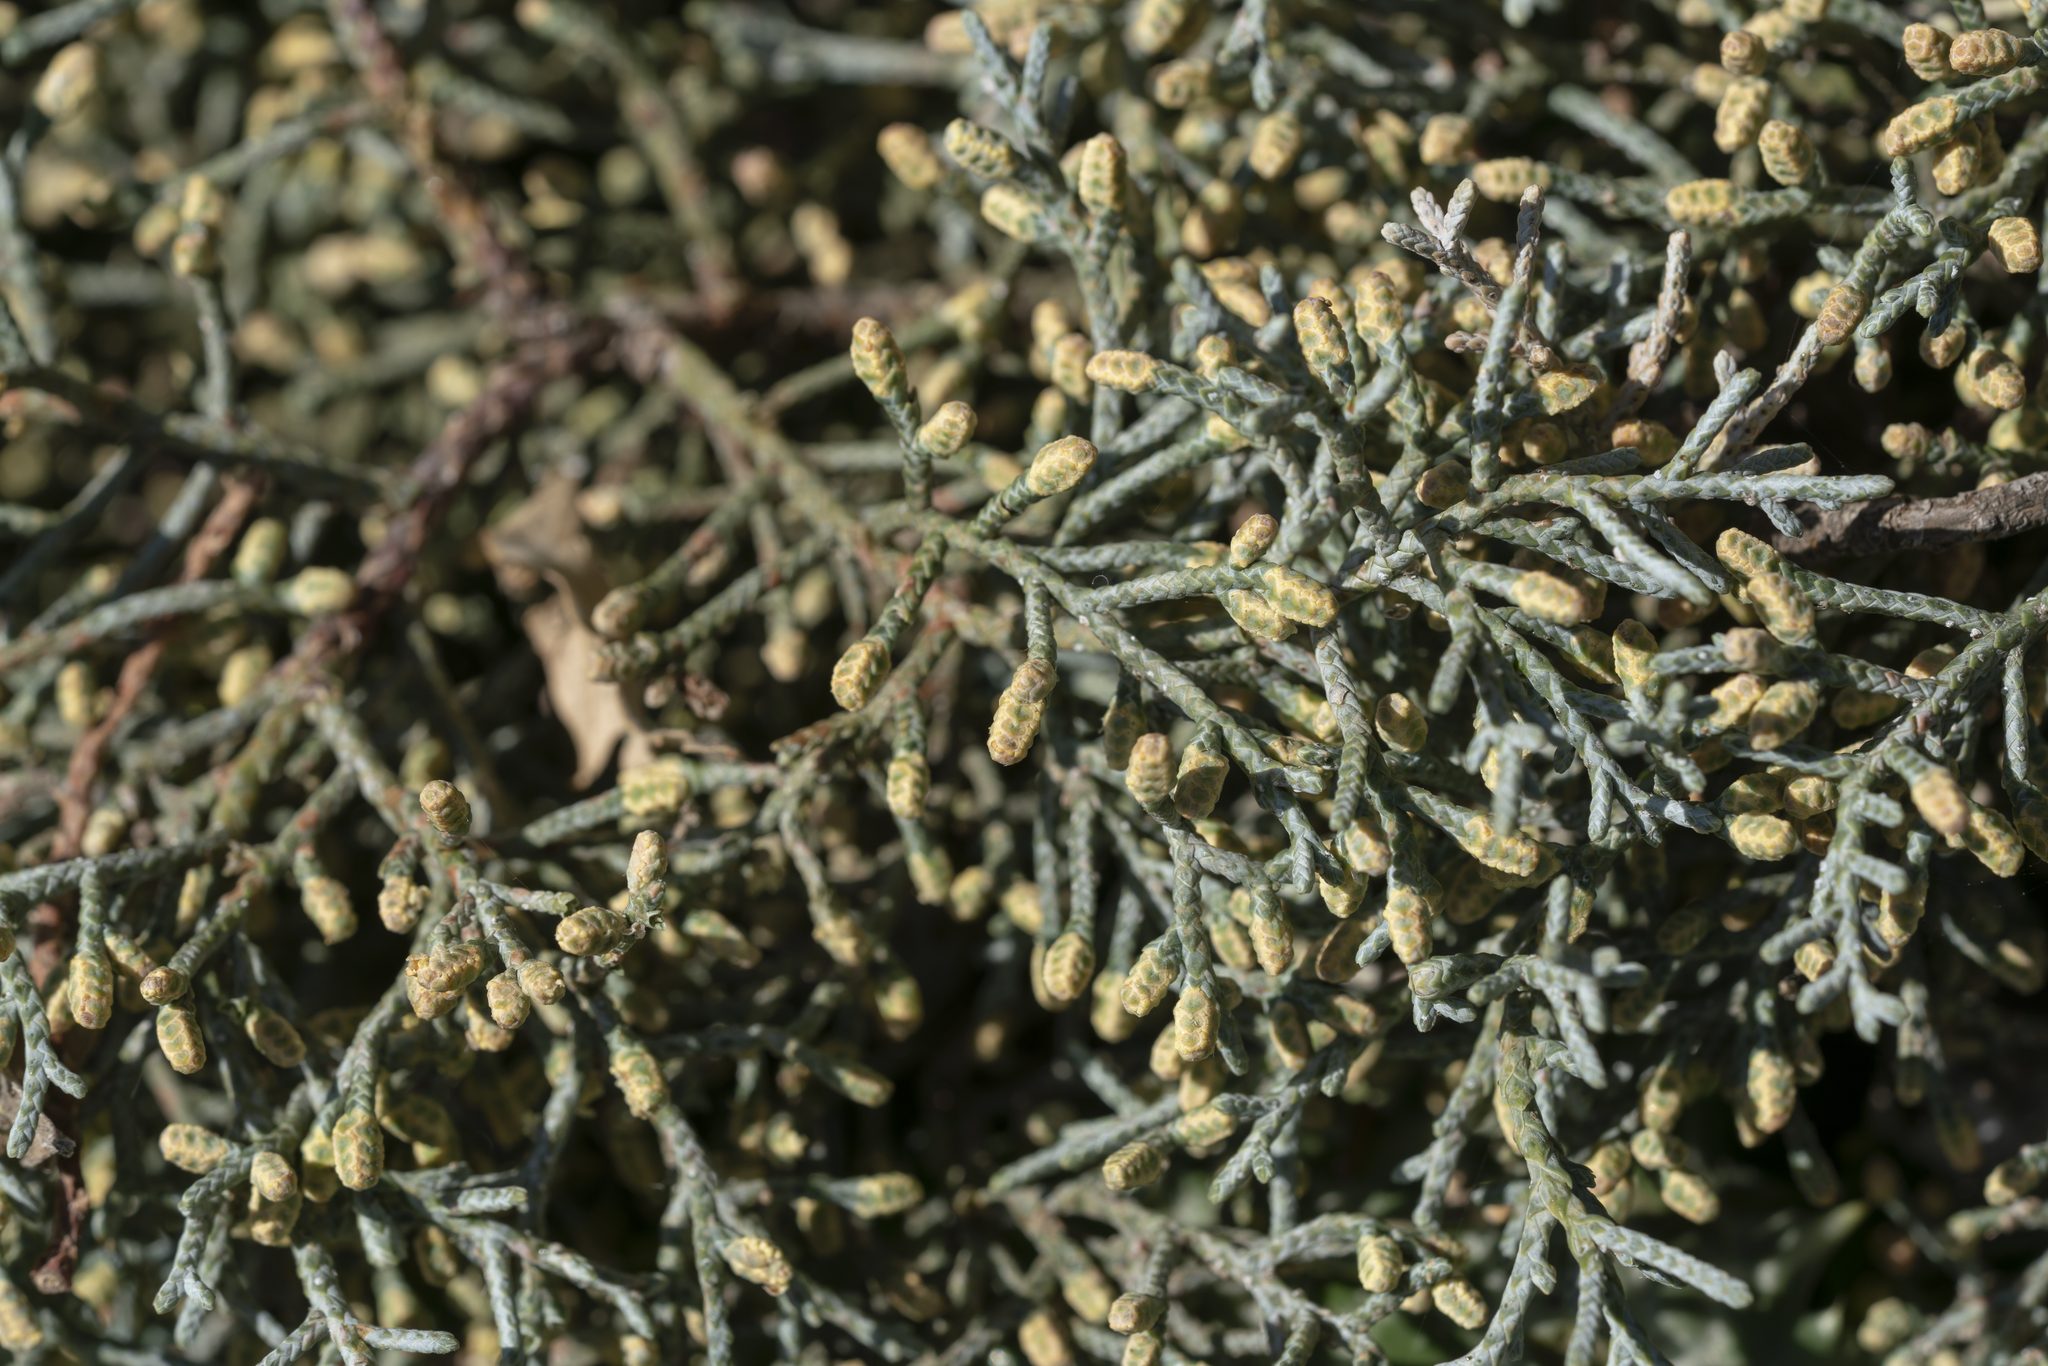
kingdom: Plantae
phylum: Tracheophyta
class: Pinopsida
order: Pinales
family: Cupressaceae
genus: Cupressus
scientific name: Cupressus arizonica
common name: Arizona cypress
